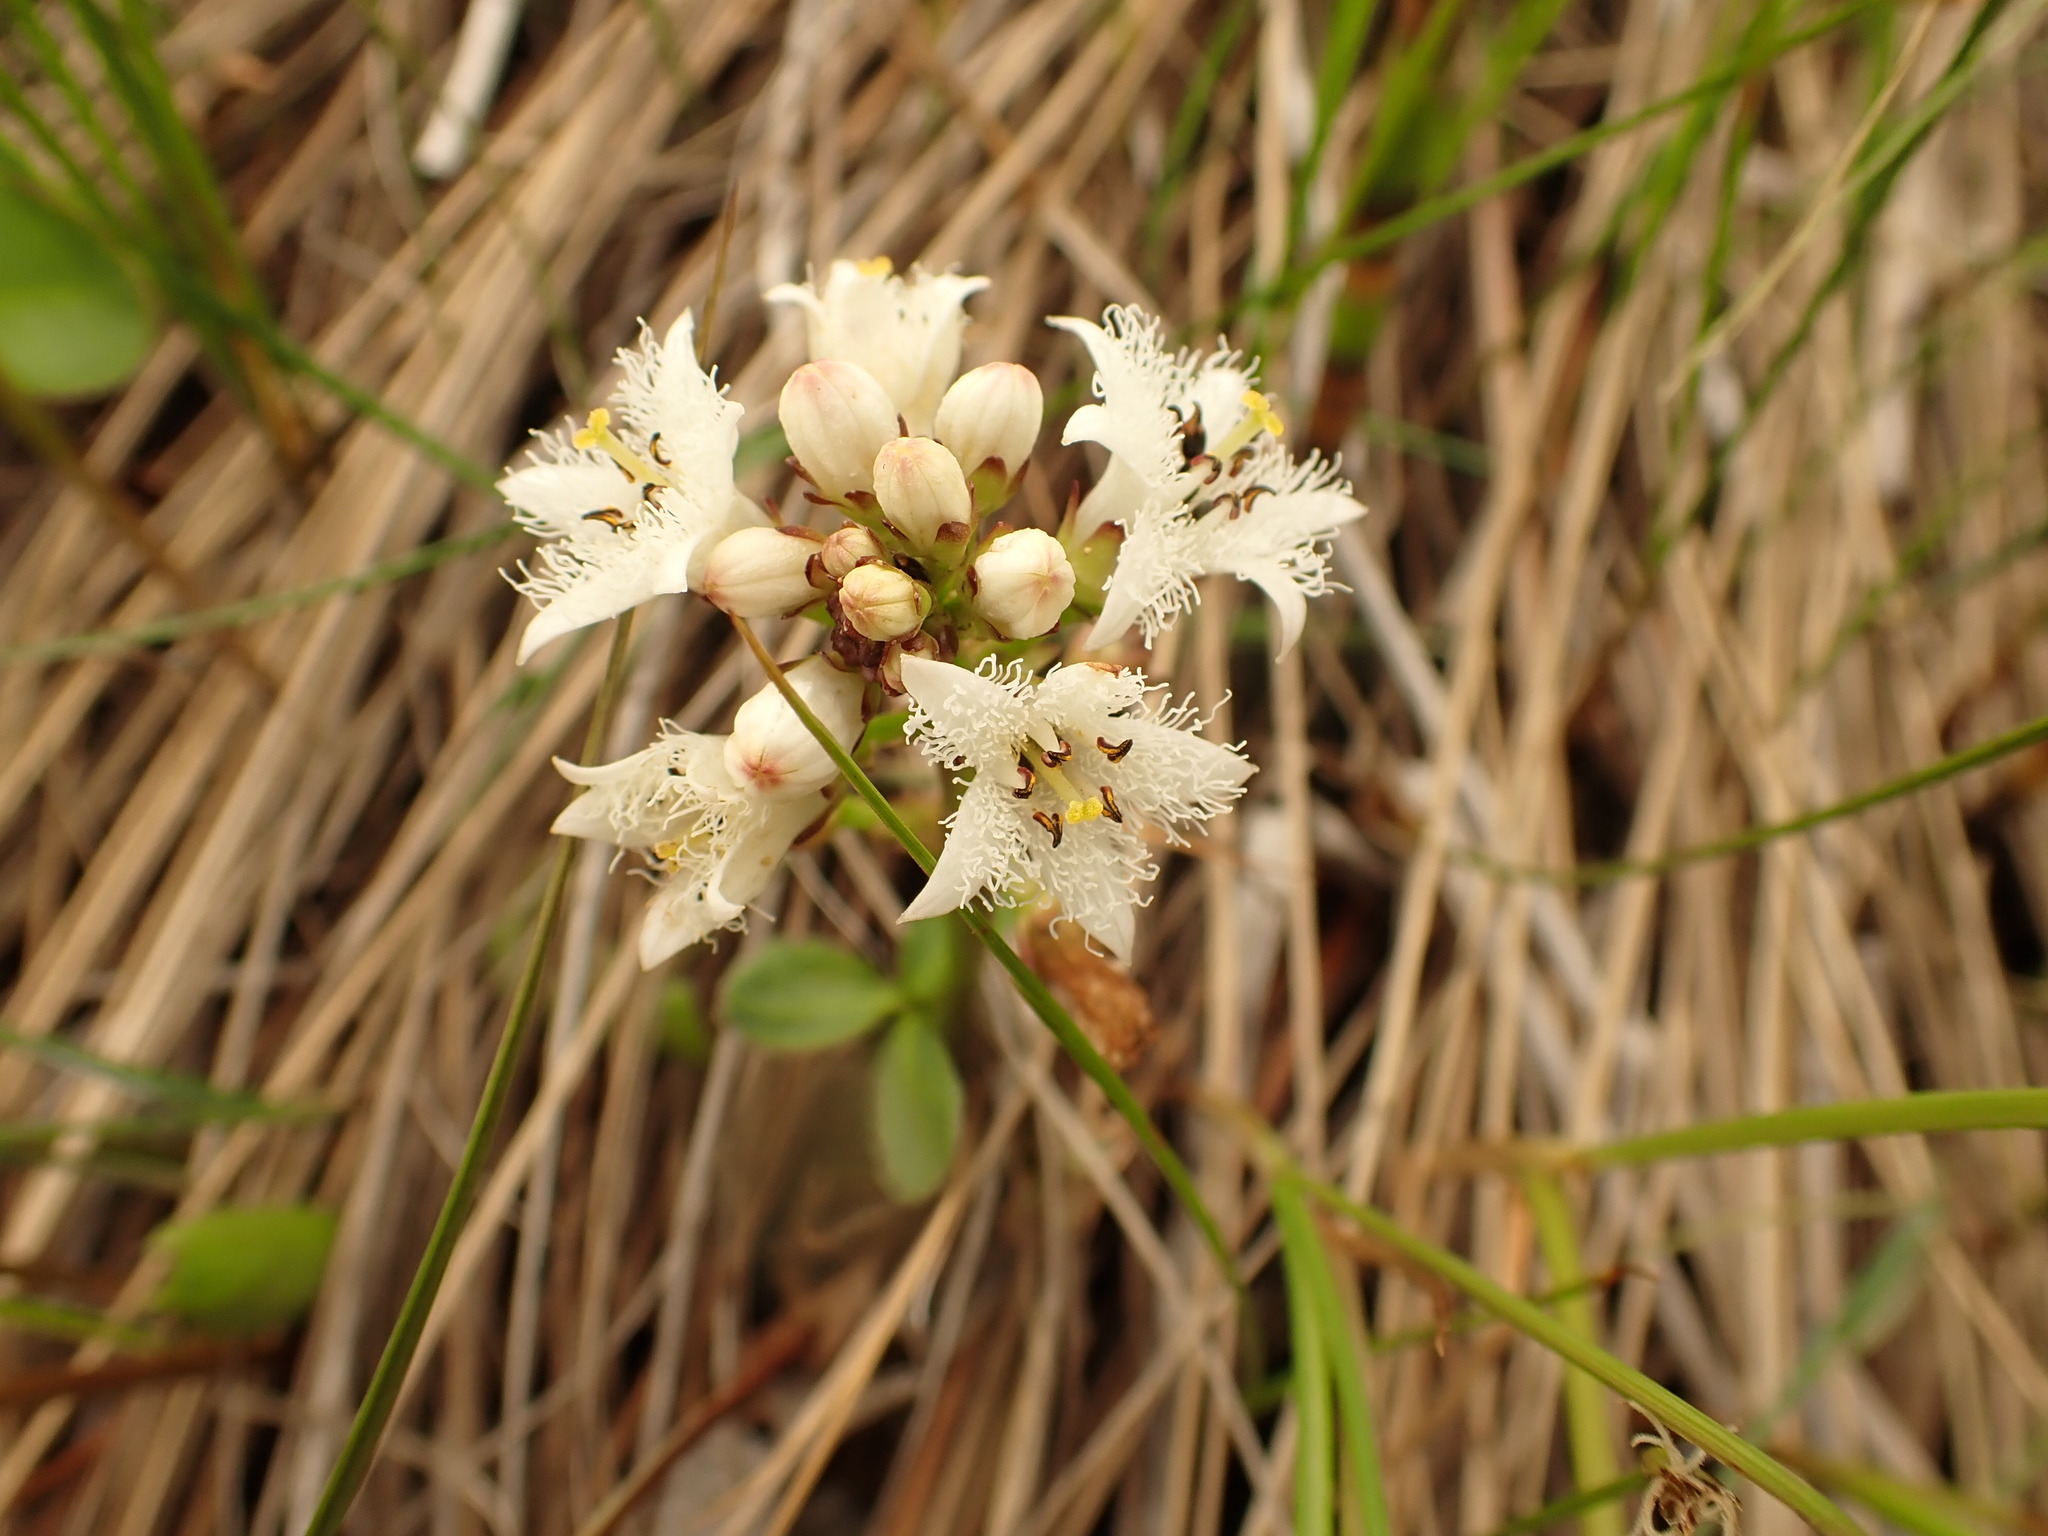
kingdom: Plantae
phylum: Tracheophyta
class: Magnoliopsida
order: Asterales
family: Menyanthaceae
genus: Menyanthes
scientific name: Menyanthes trifoliata
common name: Bogbean
